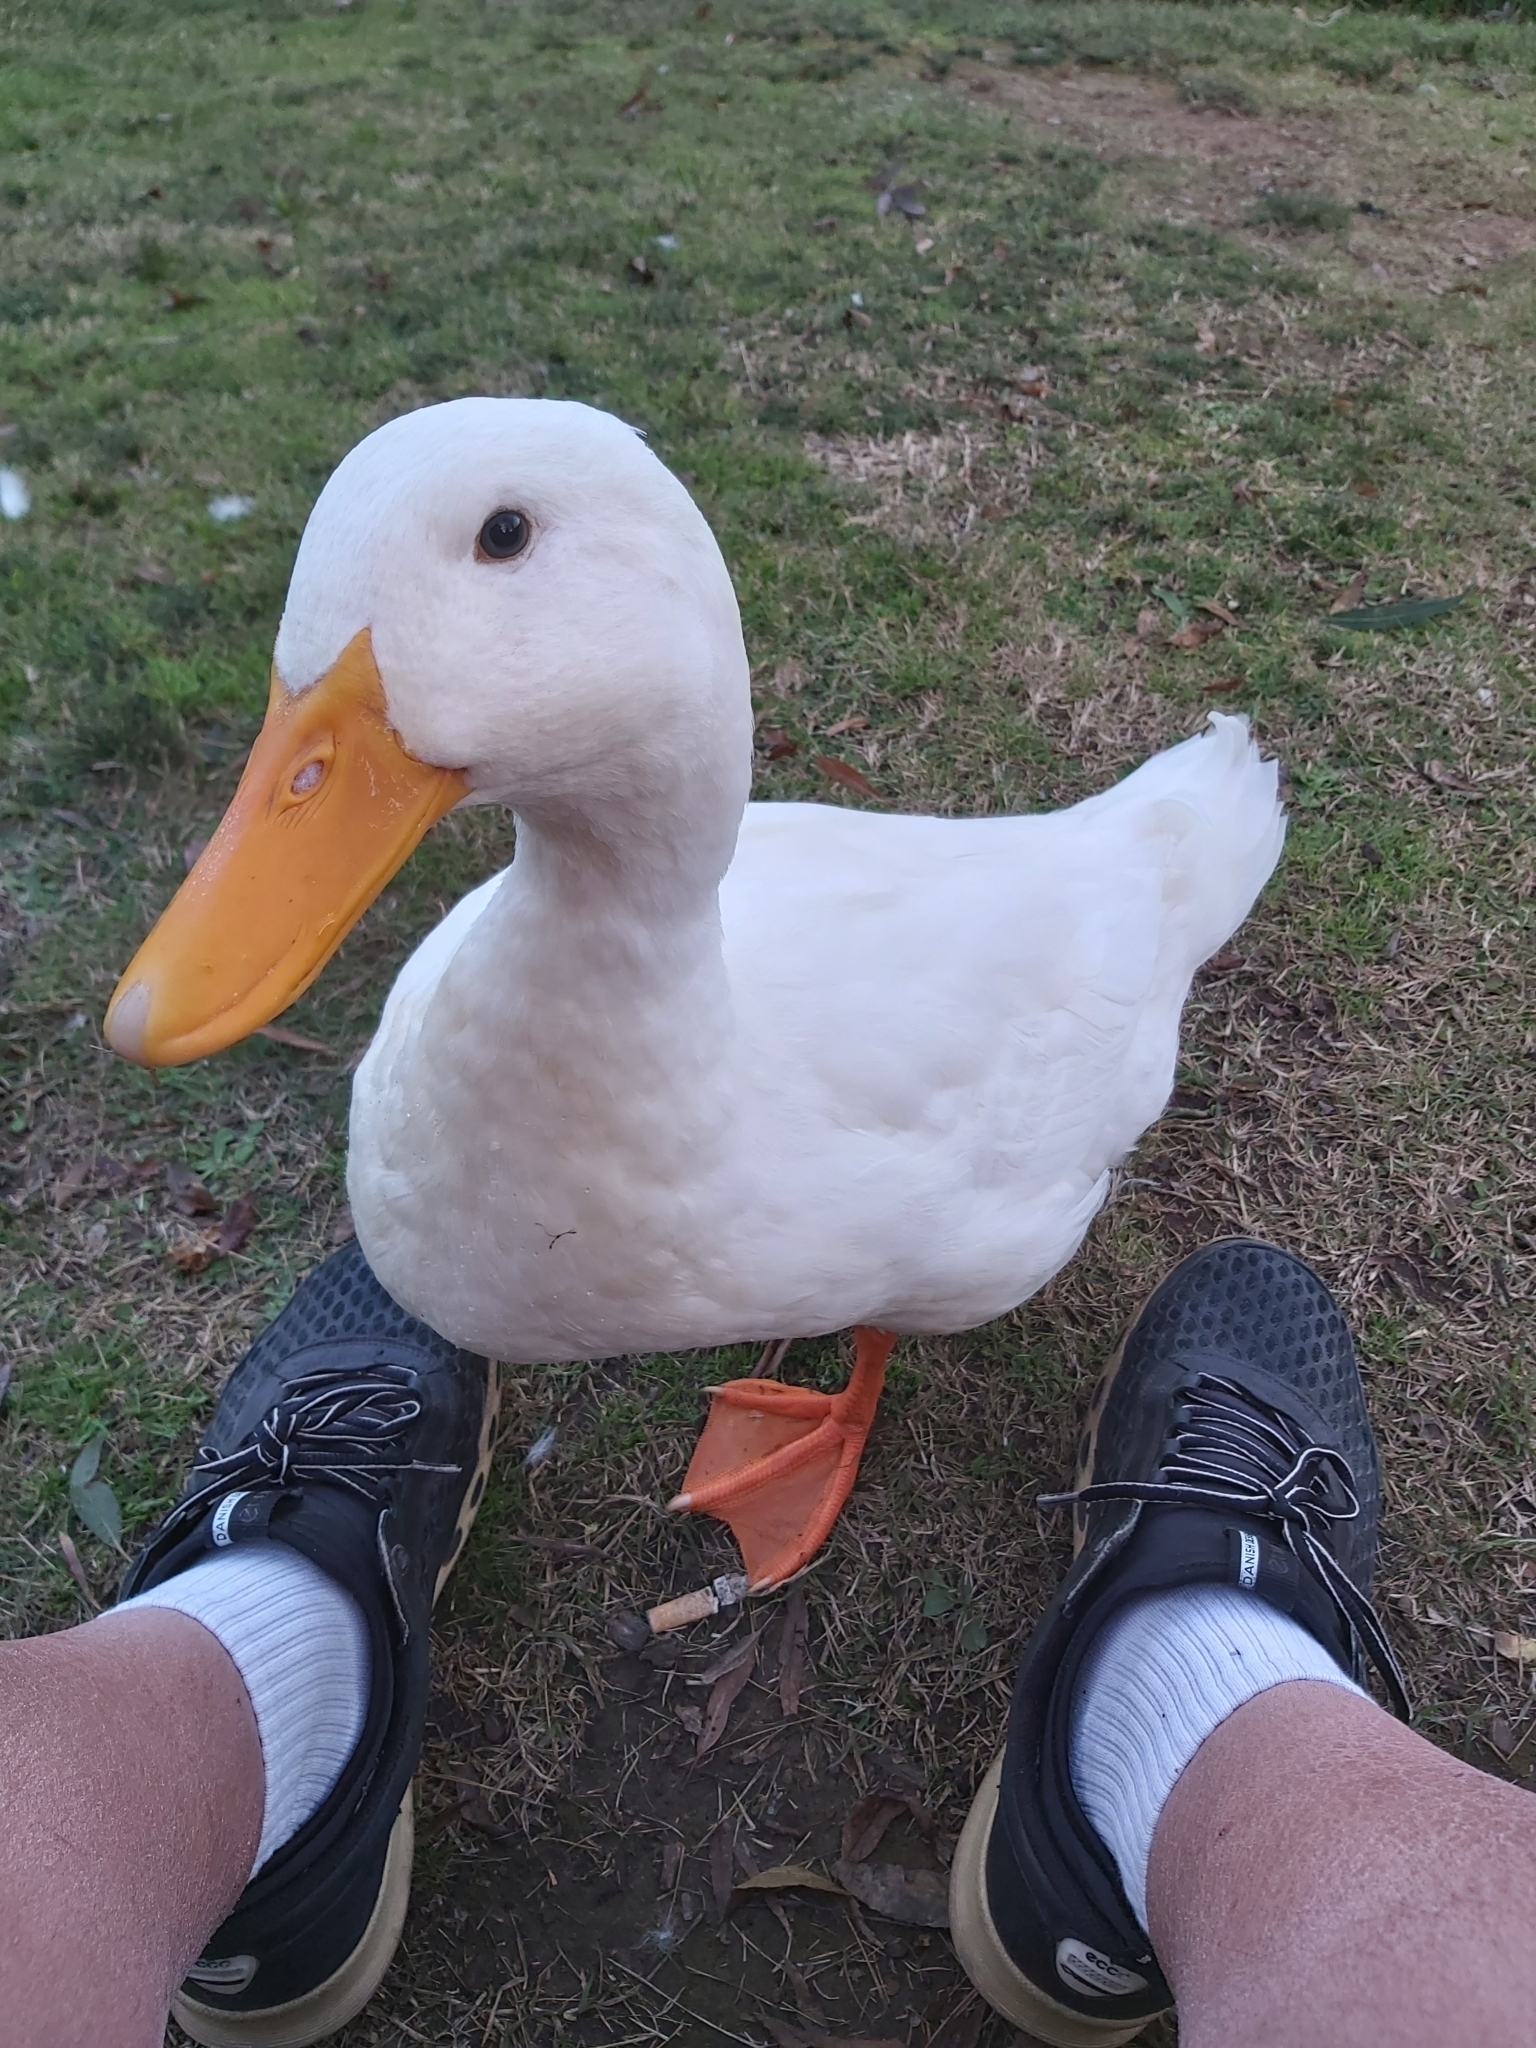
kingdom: Animalia
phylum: Chordata
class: Aves
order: Anseriformes
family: Anatidae
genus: Anas
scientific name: Anas platyrhynchos
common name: Mallard
